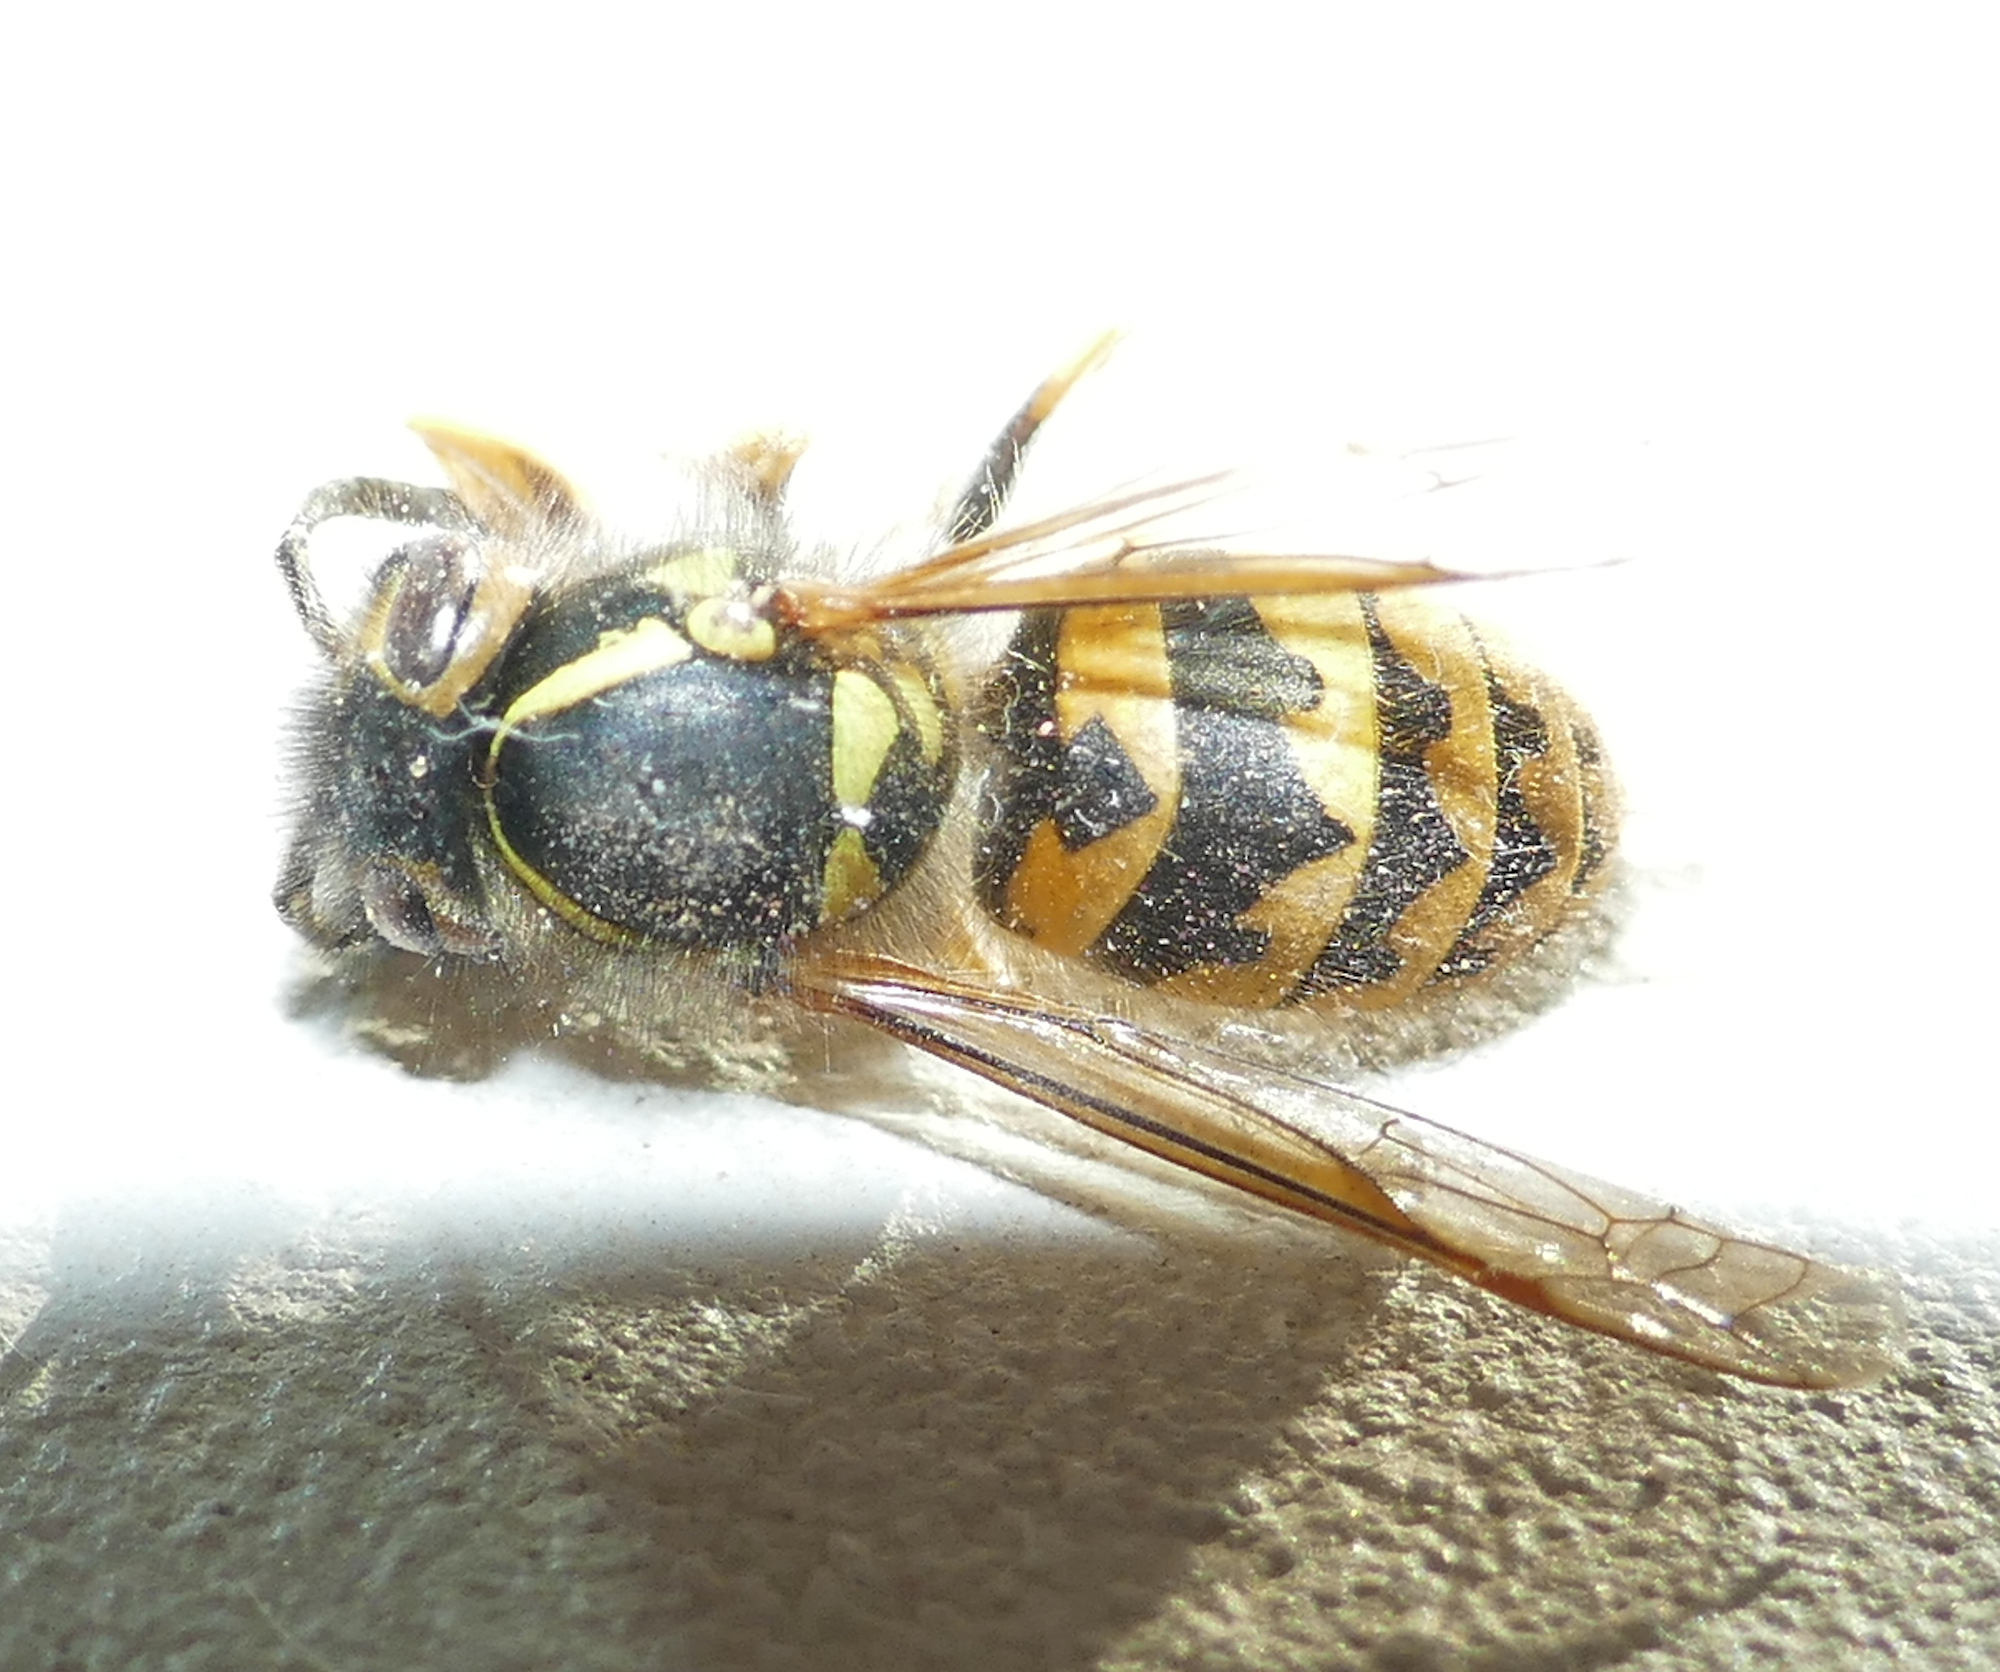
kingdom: Animalia
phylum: Arthropoda
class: Insecta
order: Hymenoptera
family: Vespidae
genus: Vespula
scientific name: Vespula pensylvanica
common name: Western yellowjacket
